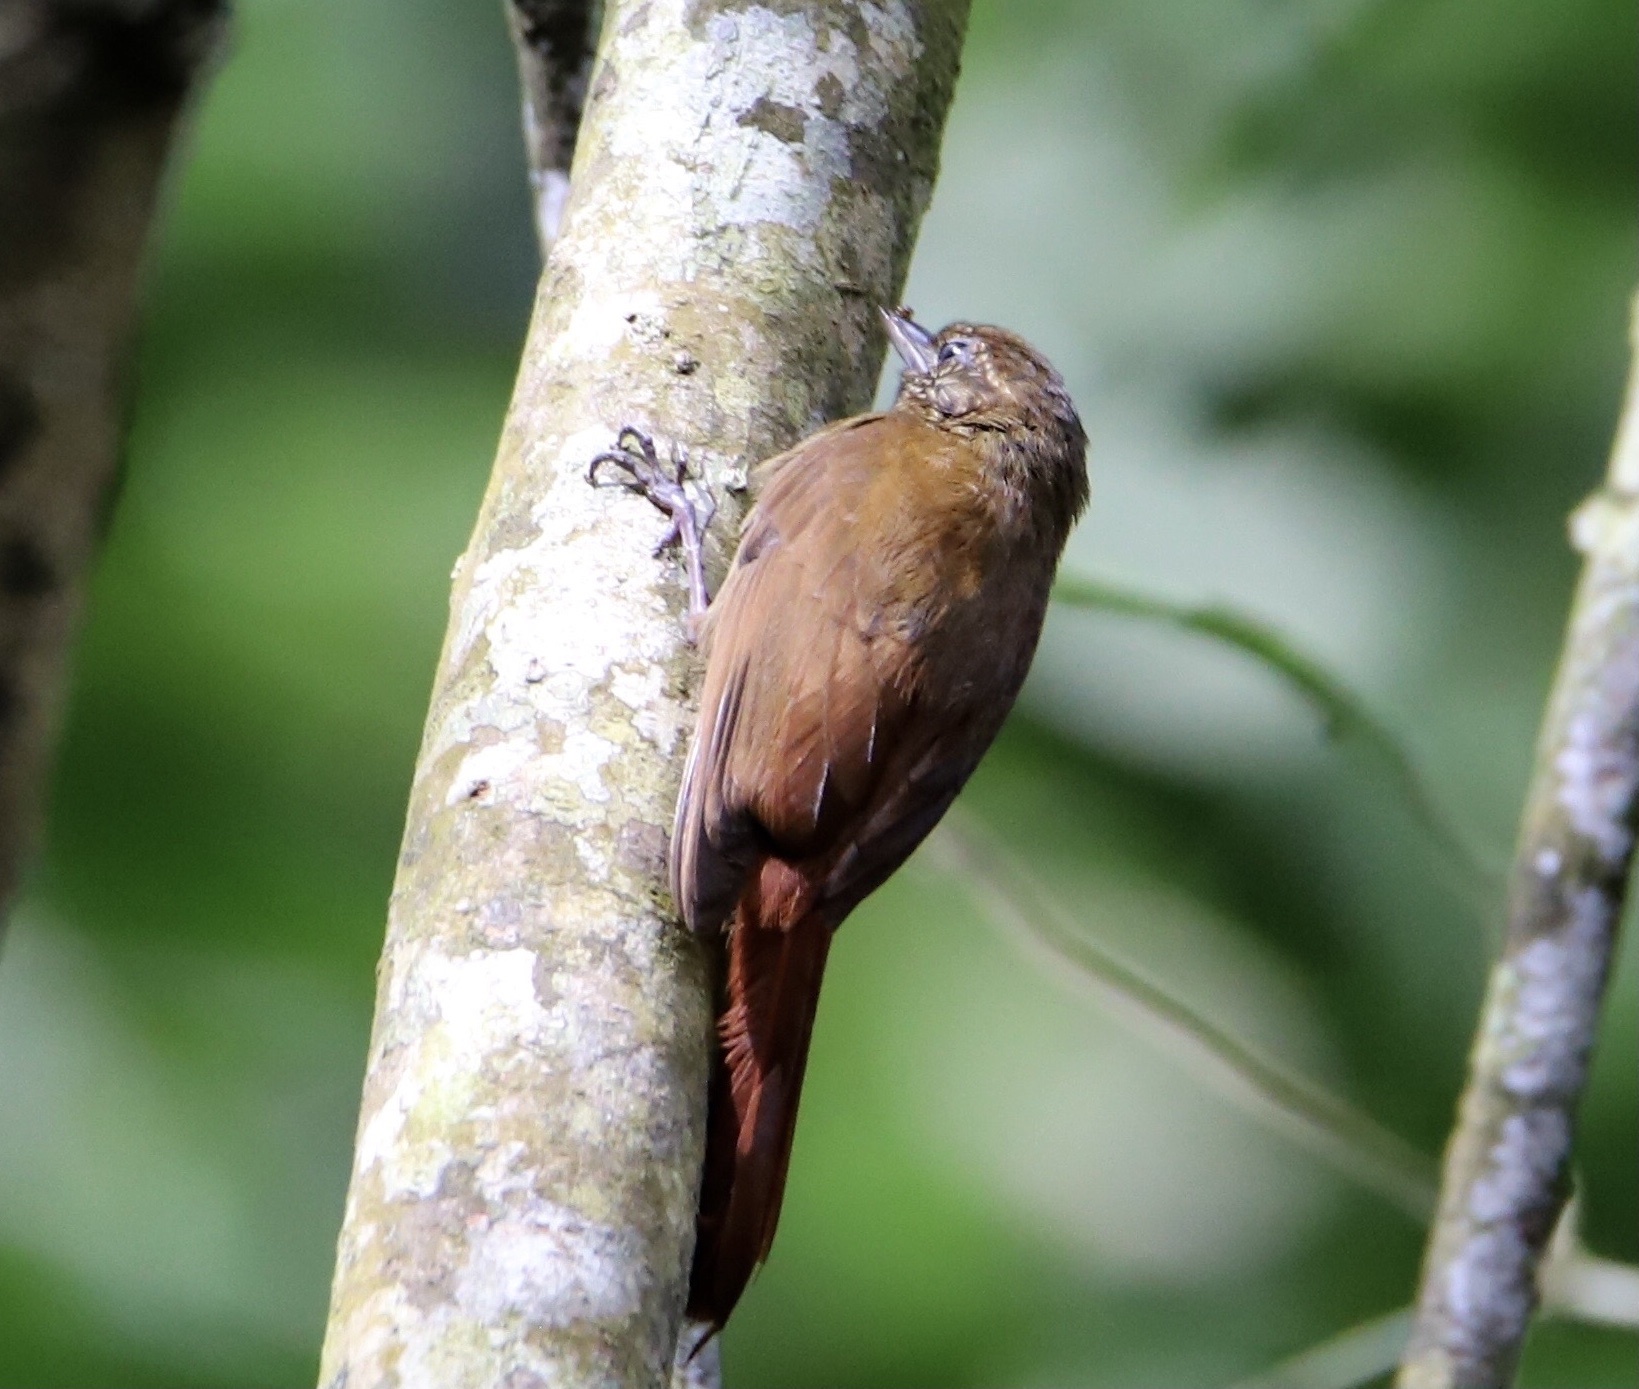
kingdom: Animalia
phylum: Chordata
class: Aves
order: Passeriformes
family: Furnariidae
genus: Glyphorynchus
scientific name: Glyphorynchus spirurus
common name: Wedge-billed woodcreeper
